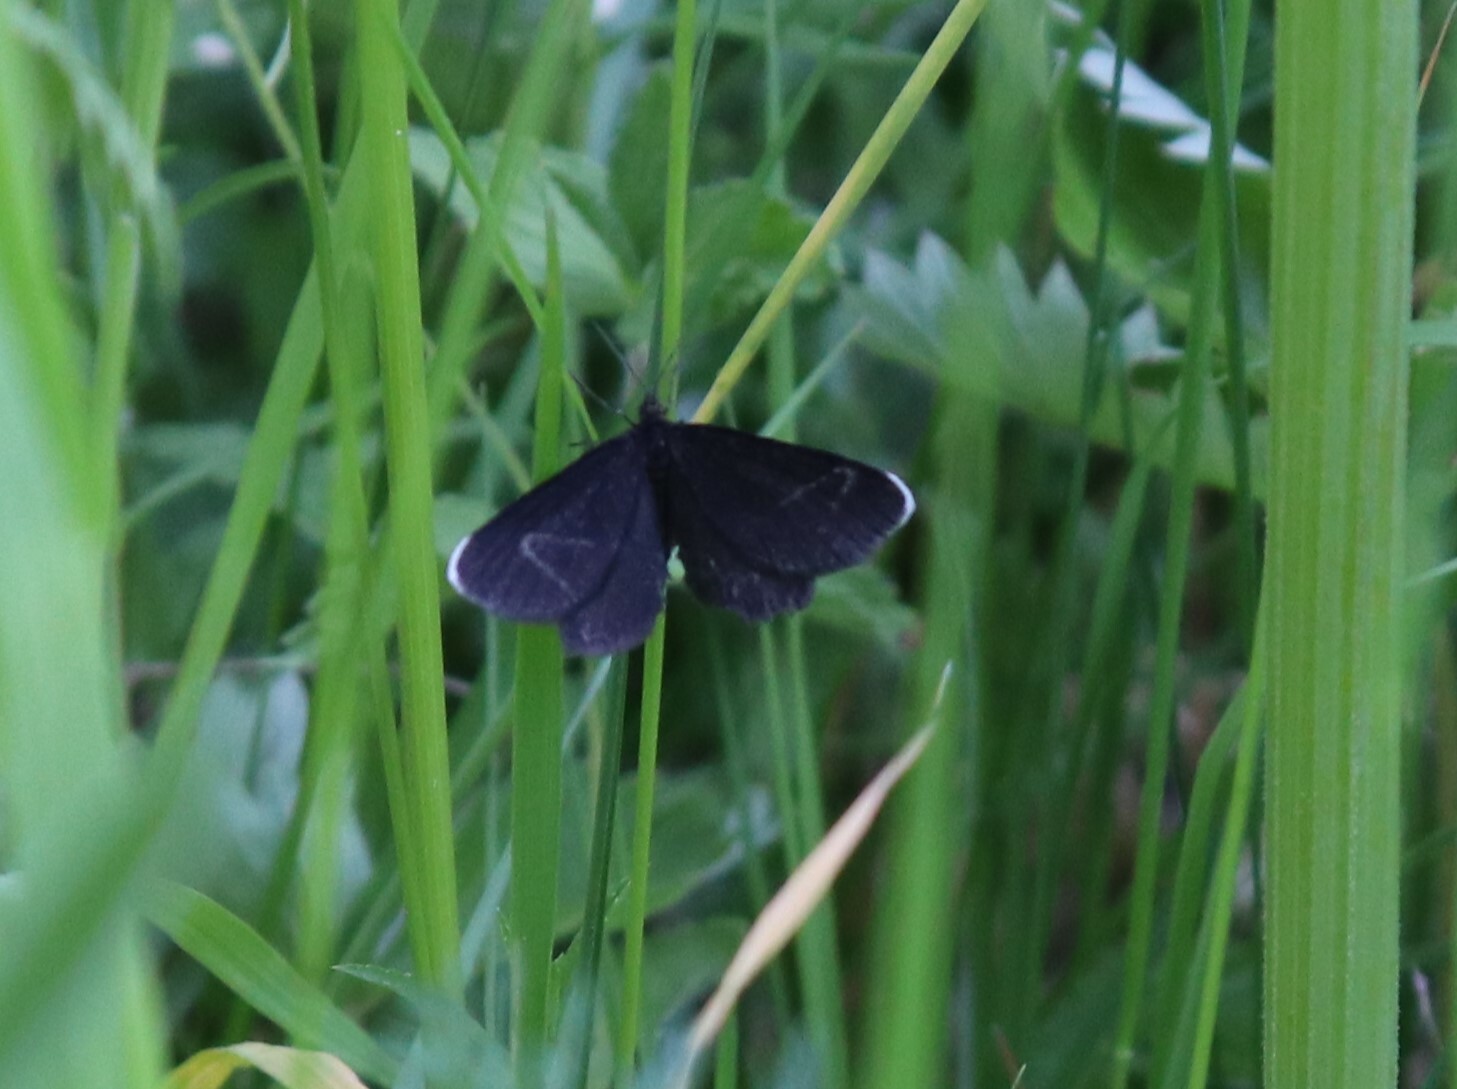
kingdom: Animalia
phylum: Arthropoda
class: Insecta
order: Lepidoptera
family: Geometridae
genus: Odezia
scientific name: Odezia atrata
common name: Chimney sweeper
